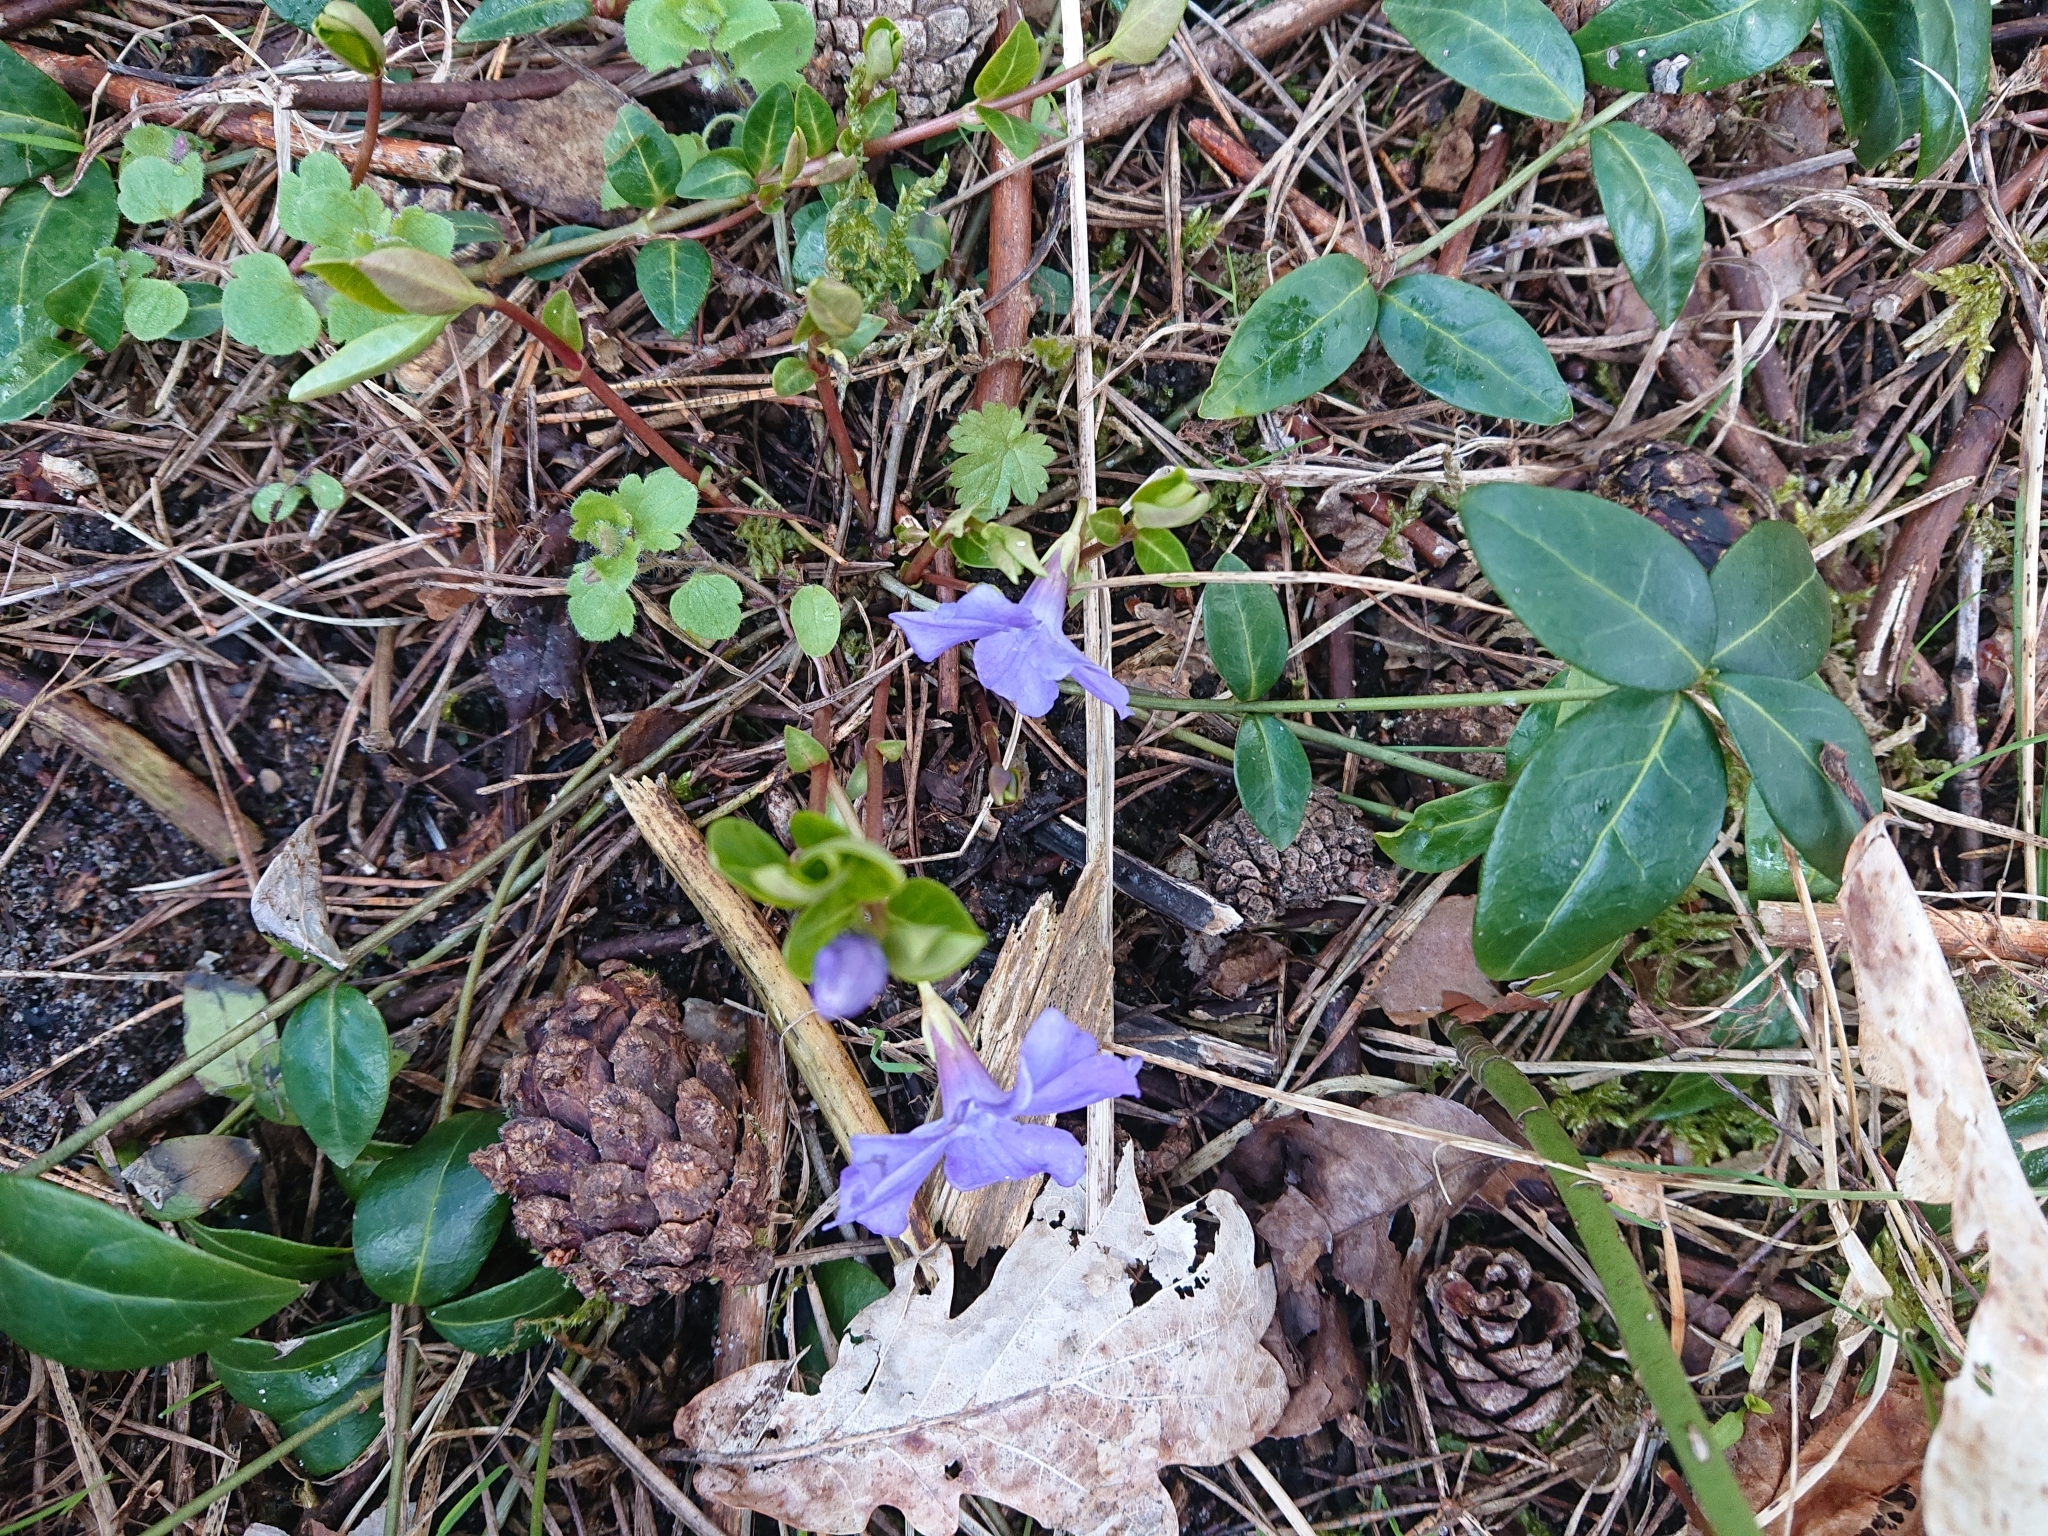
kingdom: Plantae
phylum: Tracheophyta
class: Magnoliopsida
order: Gentianales
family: Apocynaceae
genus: Vinca
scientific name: Vinca minor
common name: Lesser periwinkle
